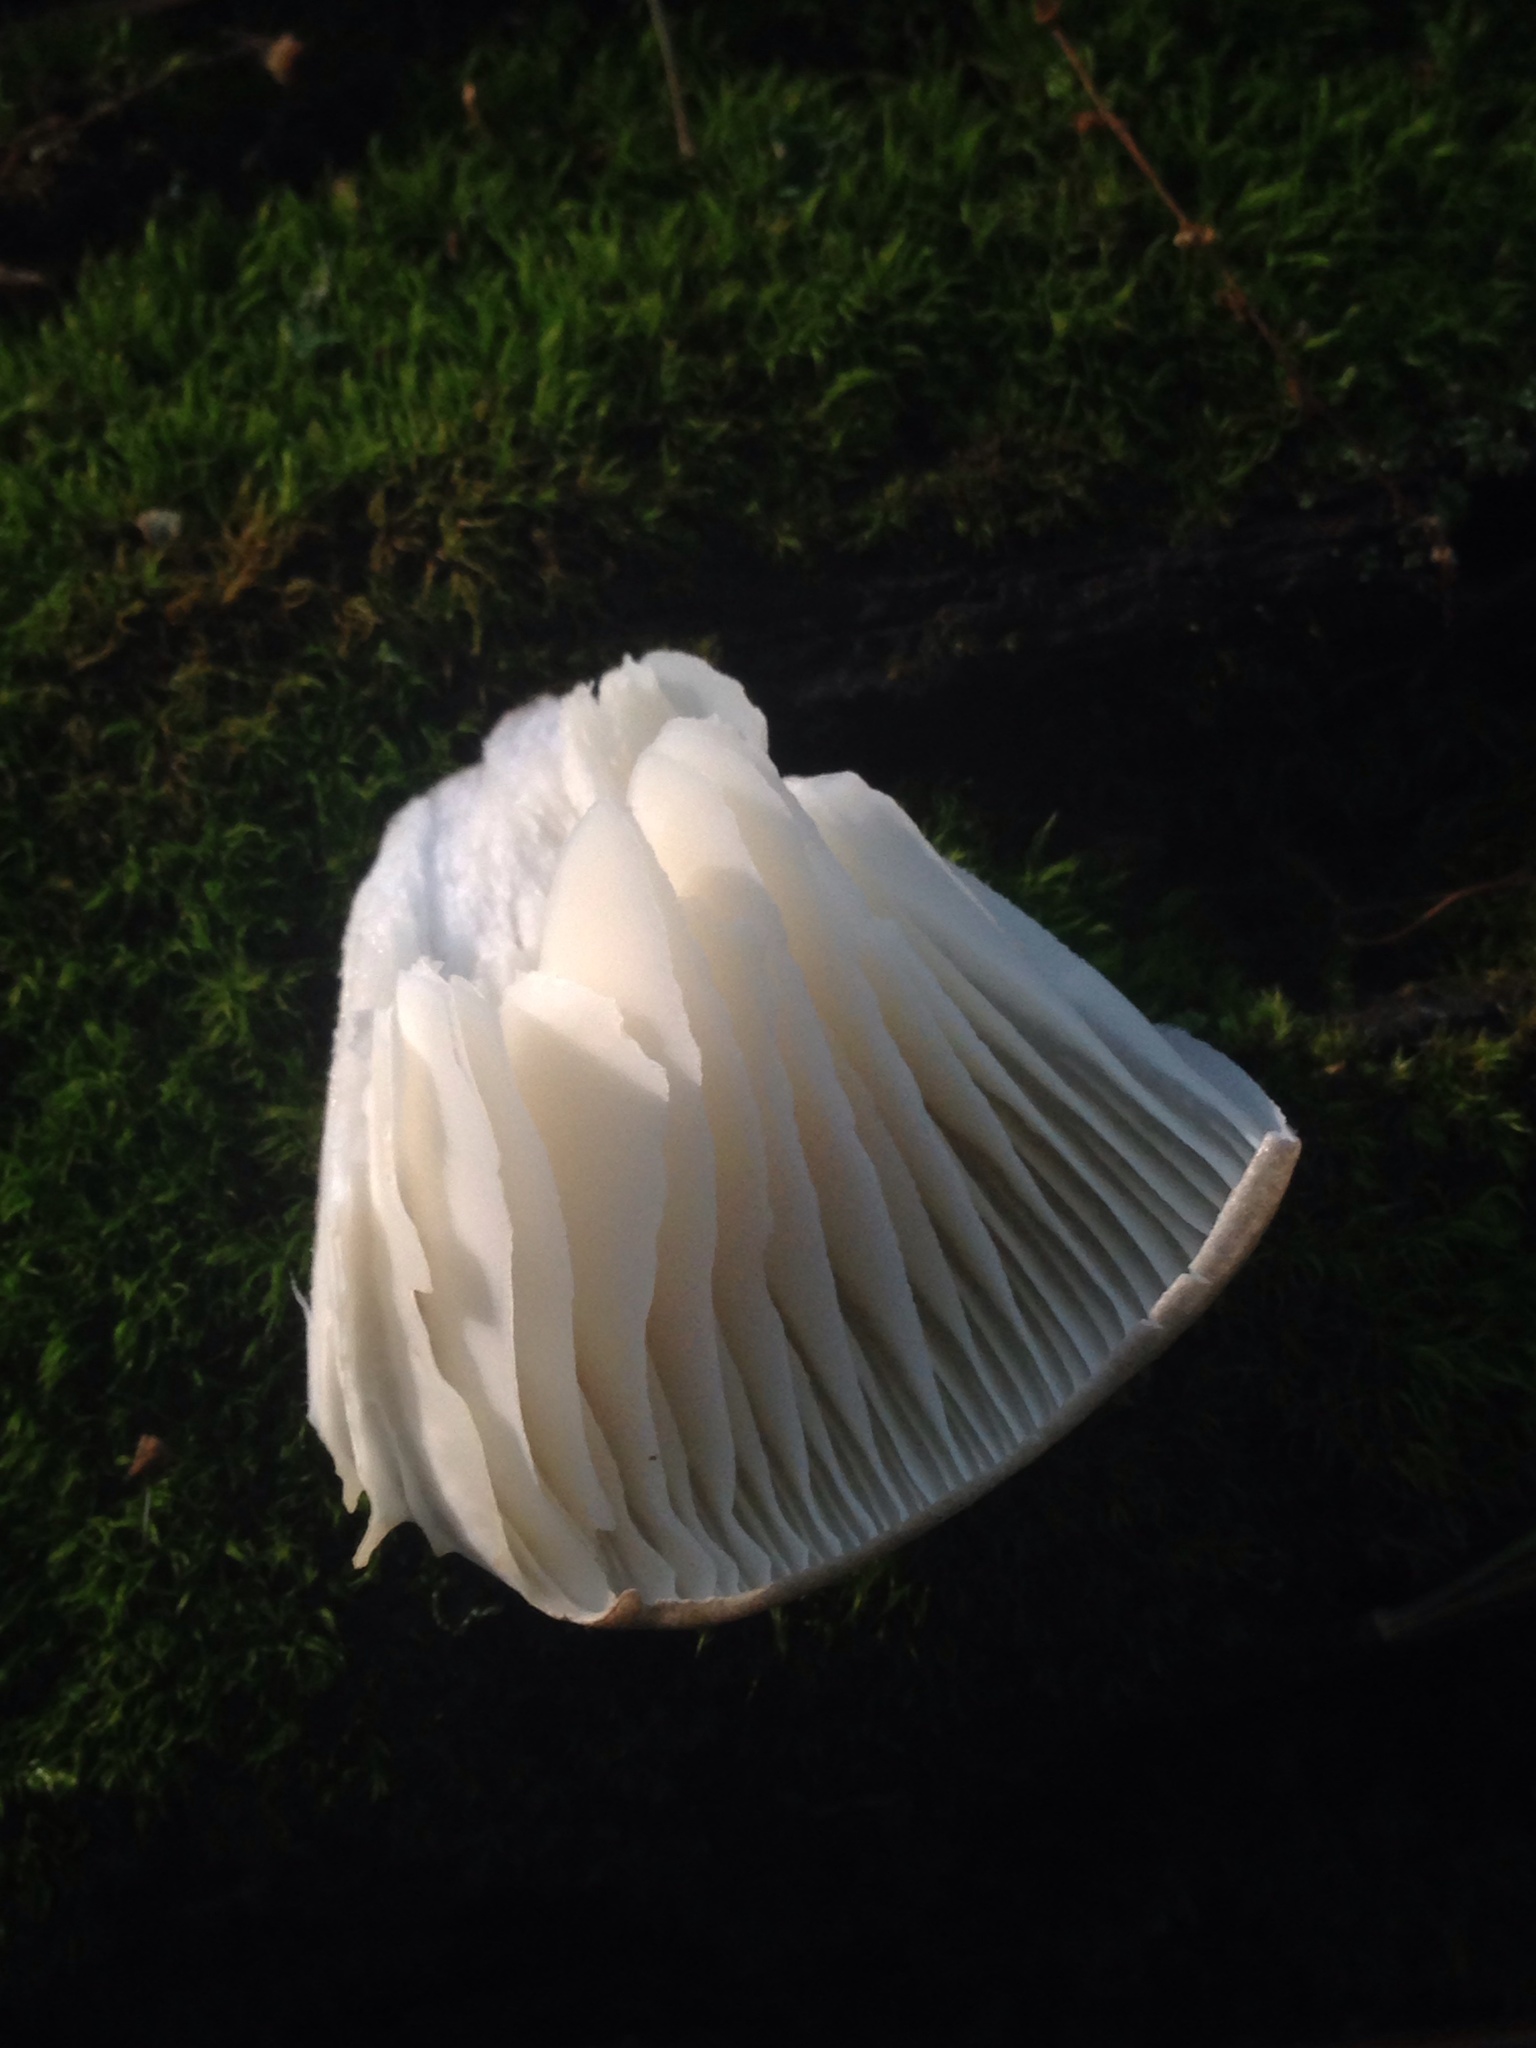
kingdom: Fungi
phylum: Basidiomycota
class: Agaricomycetes
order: Agaricales
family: Tricholomataceae
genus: Megacollybia
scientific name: Megacollybia rodmanii
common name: Eastern american platterful mushroom
